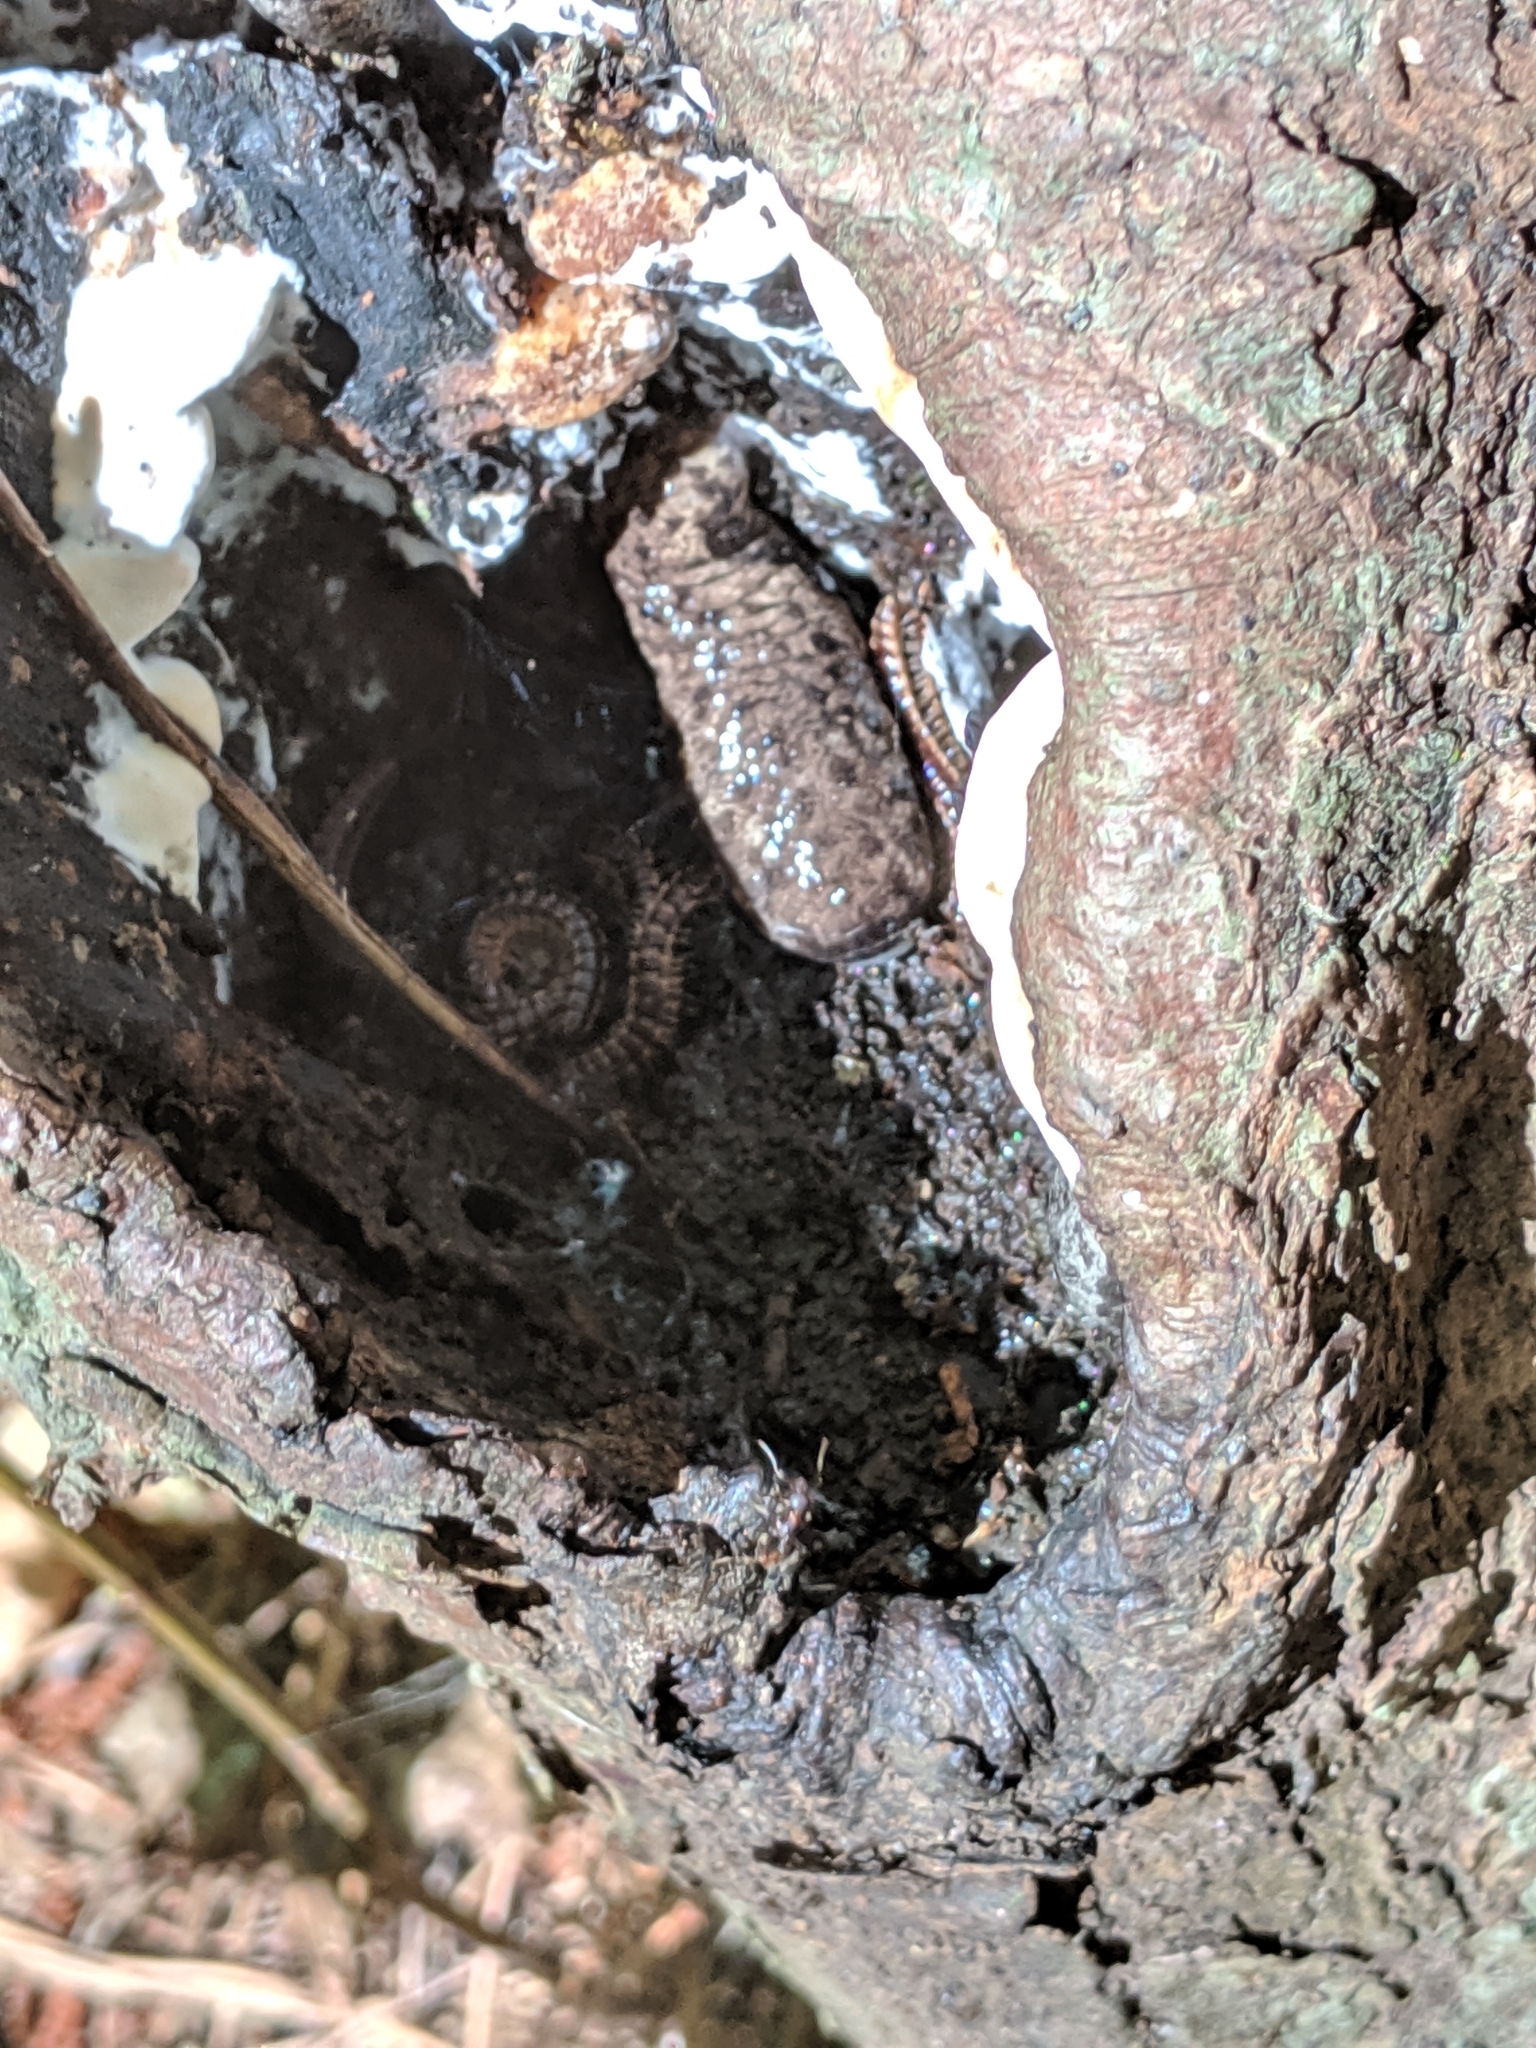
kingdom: Animalia
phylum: Arthropoda
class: Diplopoda
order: Polydesmida
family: Paradoxosomatidae
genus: Oxidus
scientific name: Oxidus gracilis
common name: Greenhouse millipede
